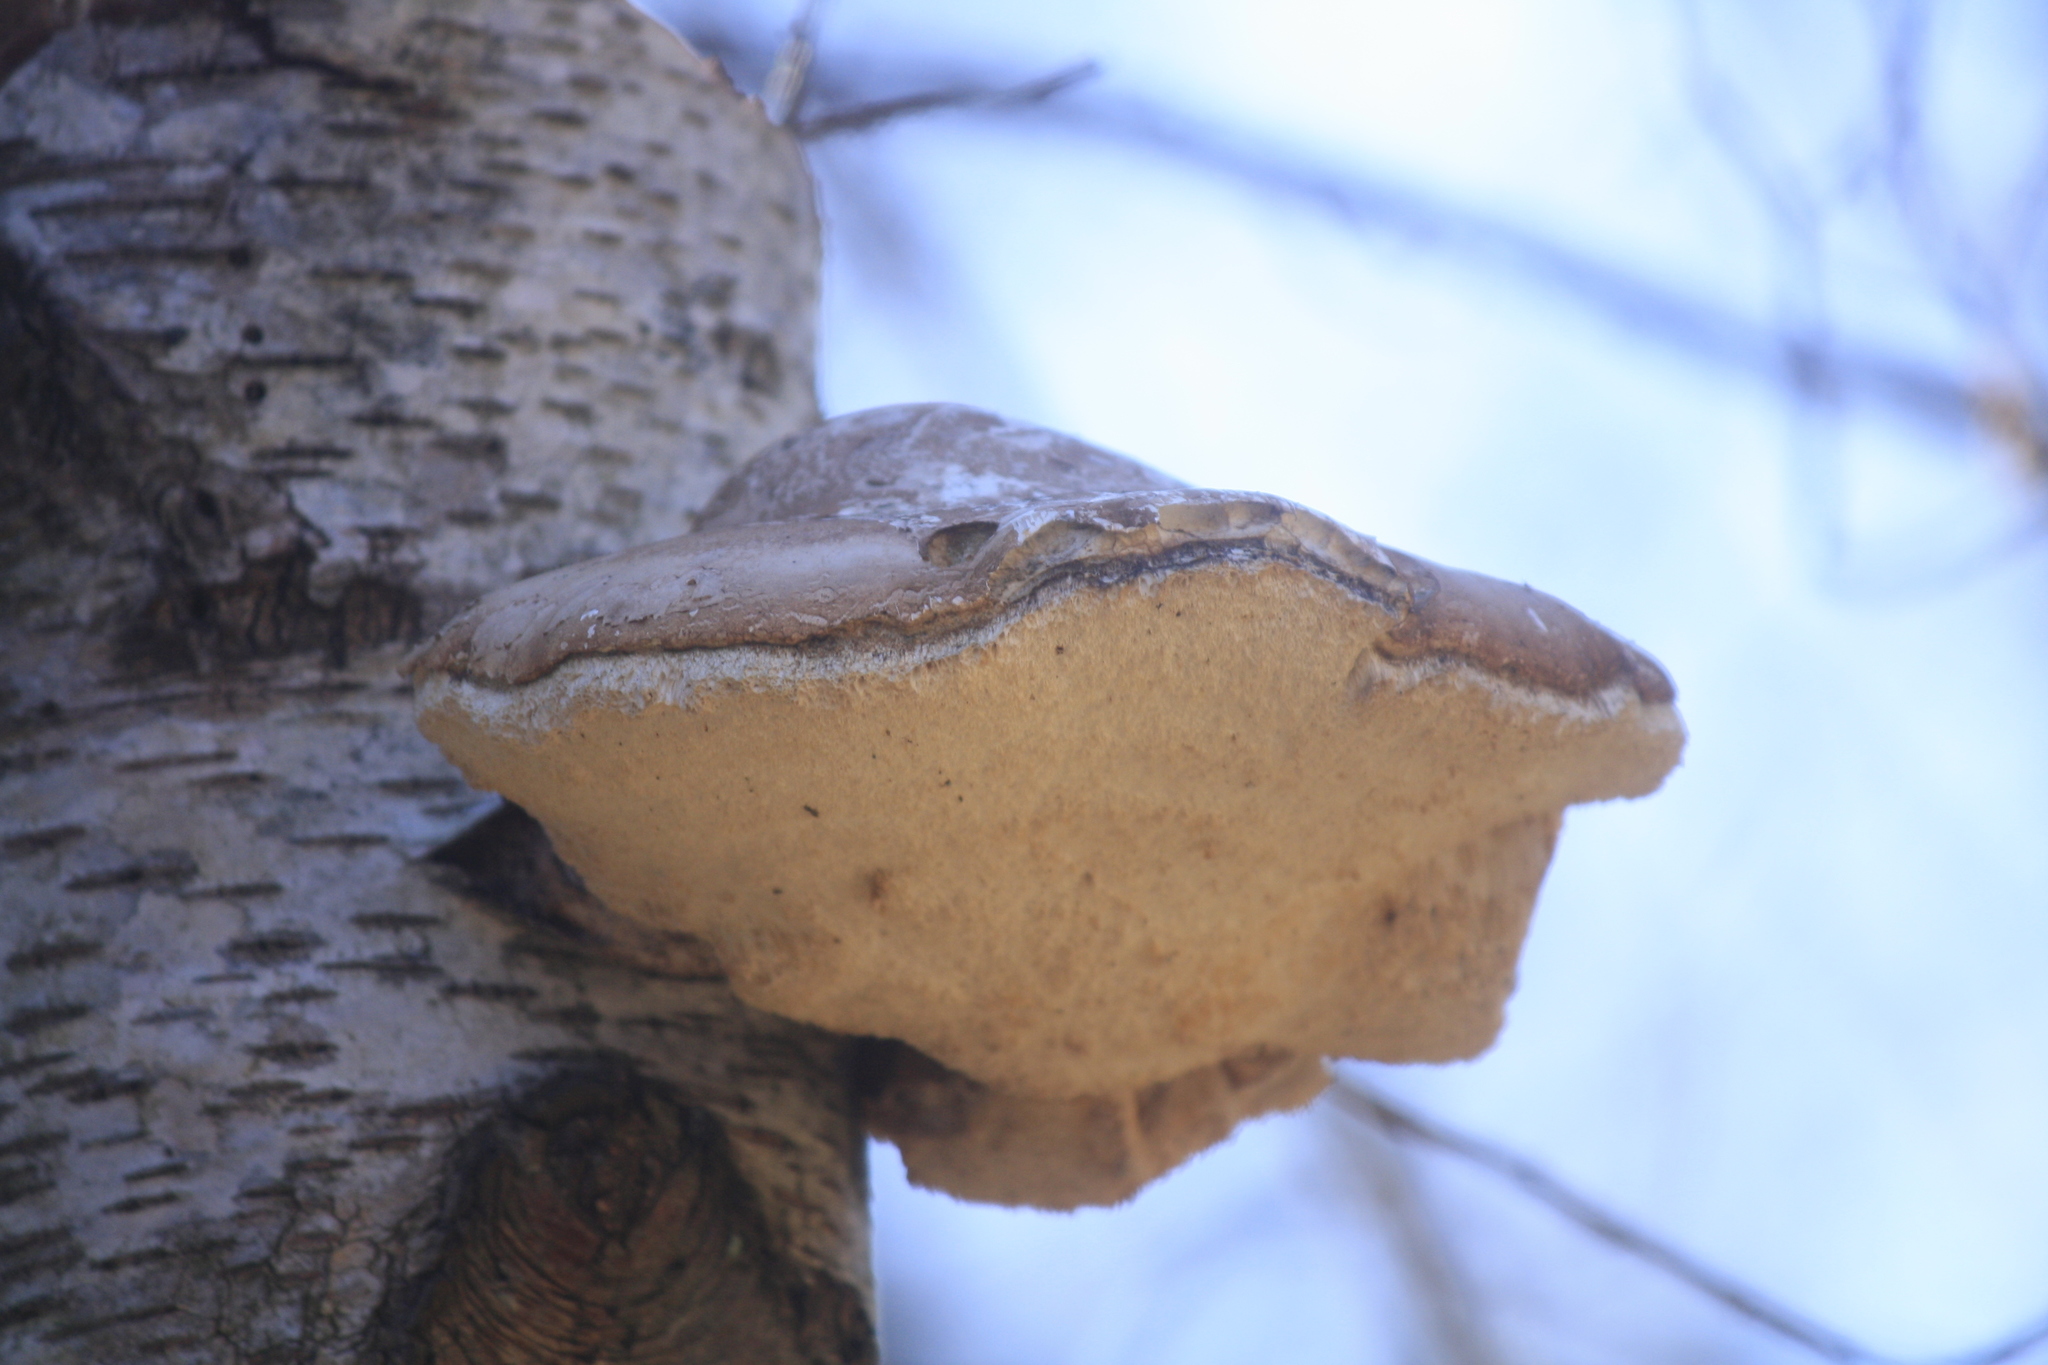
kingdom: Fungi
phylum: Basidiomycota
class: Agaricomycetes
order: Polyporales
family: Fomitopsidaceae
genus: Fomitopsis
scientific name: Fomitopsis betulina
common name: Birch polypore
